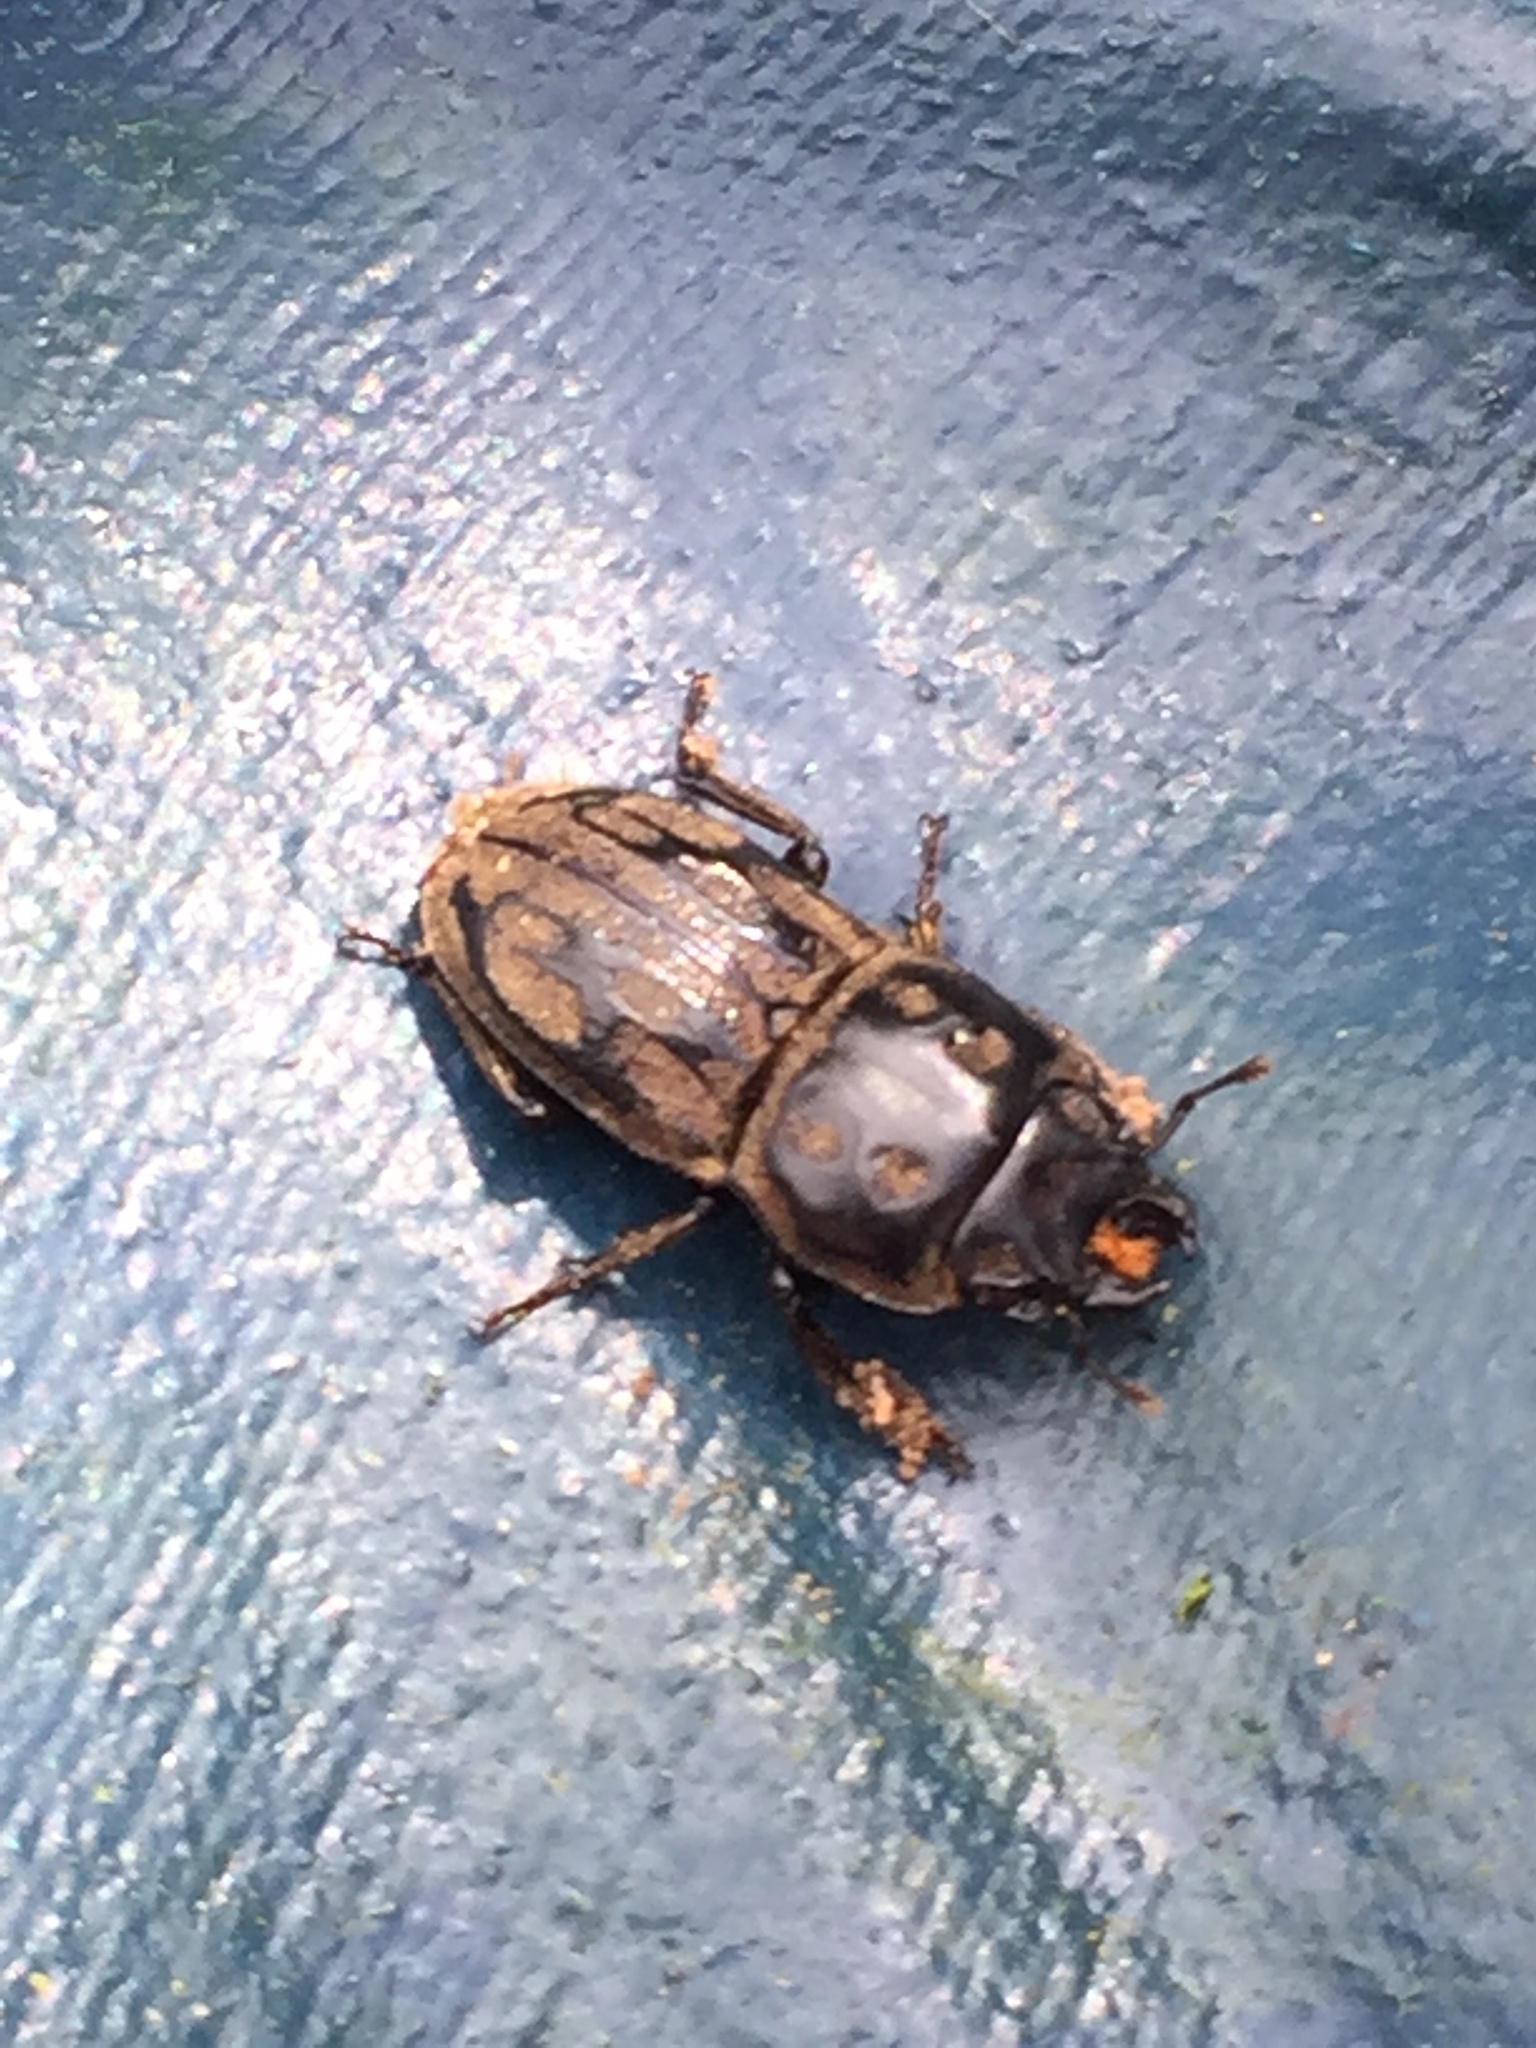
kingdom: Animalia
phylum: Arthropoda
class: Insecta
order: Coleoptera
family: Lucanidae
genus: Paralissotes
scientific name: Paralissotes reticulatus
